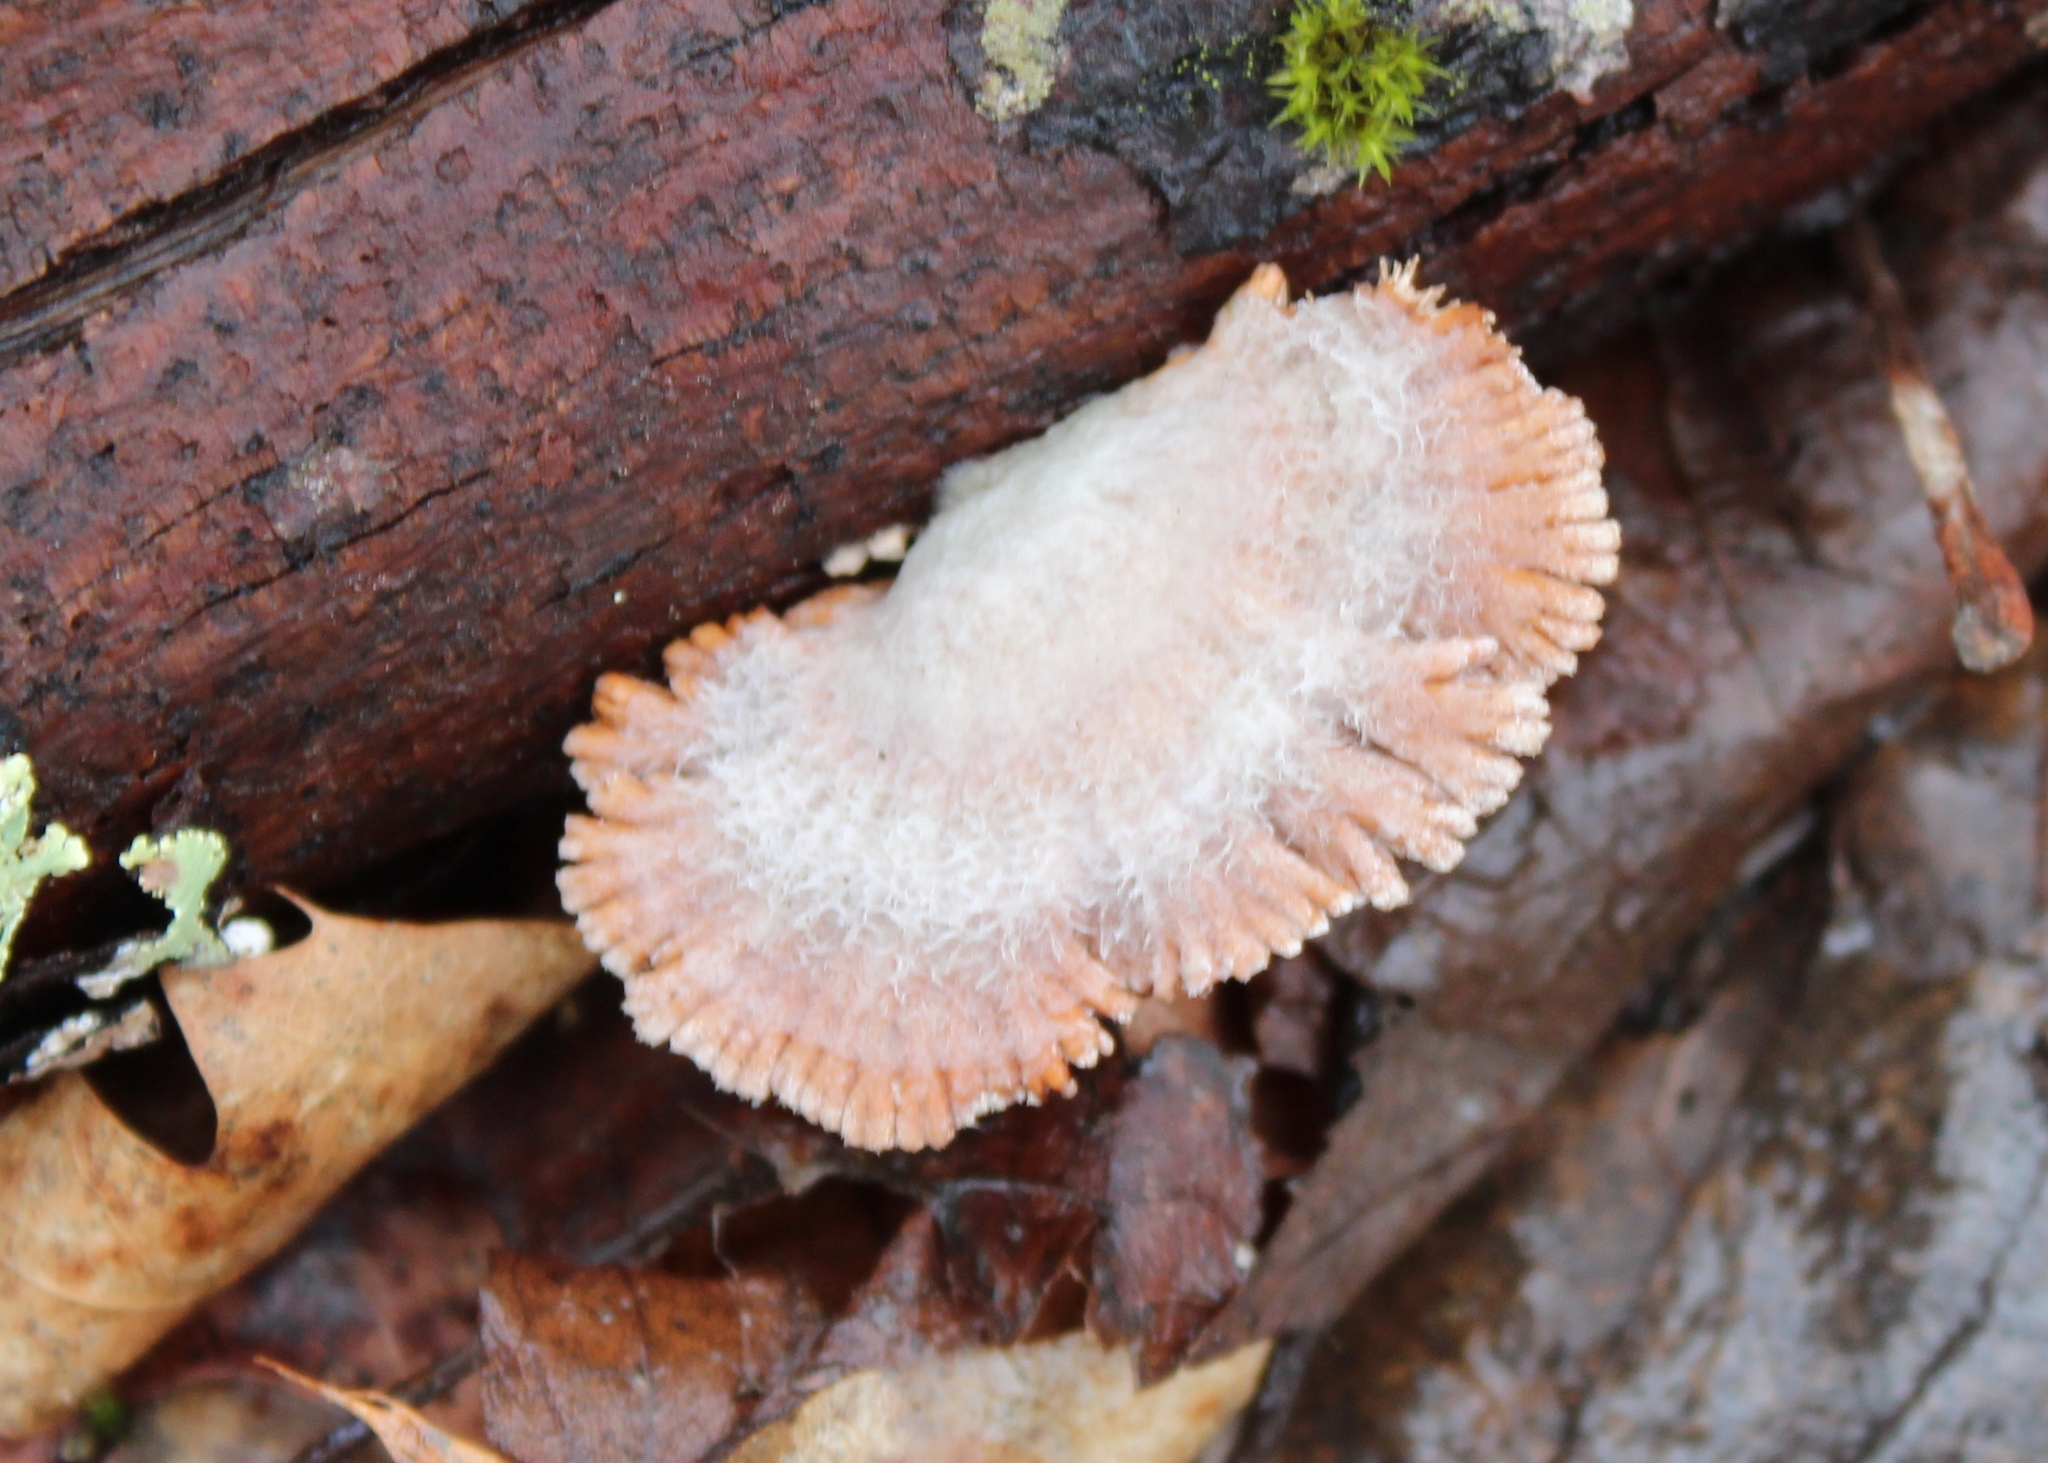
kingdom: Fungi
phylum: Basidiomycota
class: Agaricomycetes
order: Agaricales
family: Schizophyllaceae
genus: Schizophyllum
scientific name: Schizophyllum commune
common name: Common porecrust
